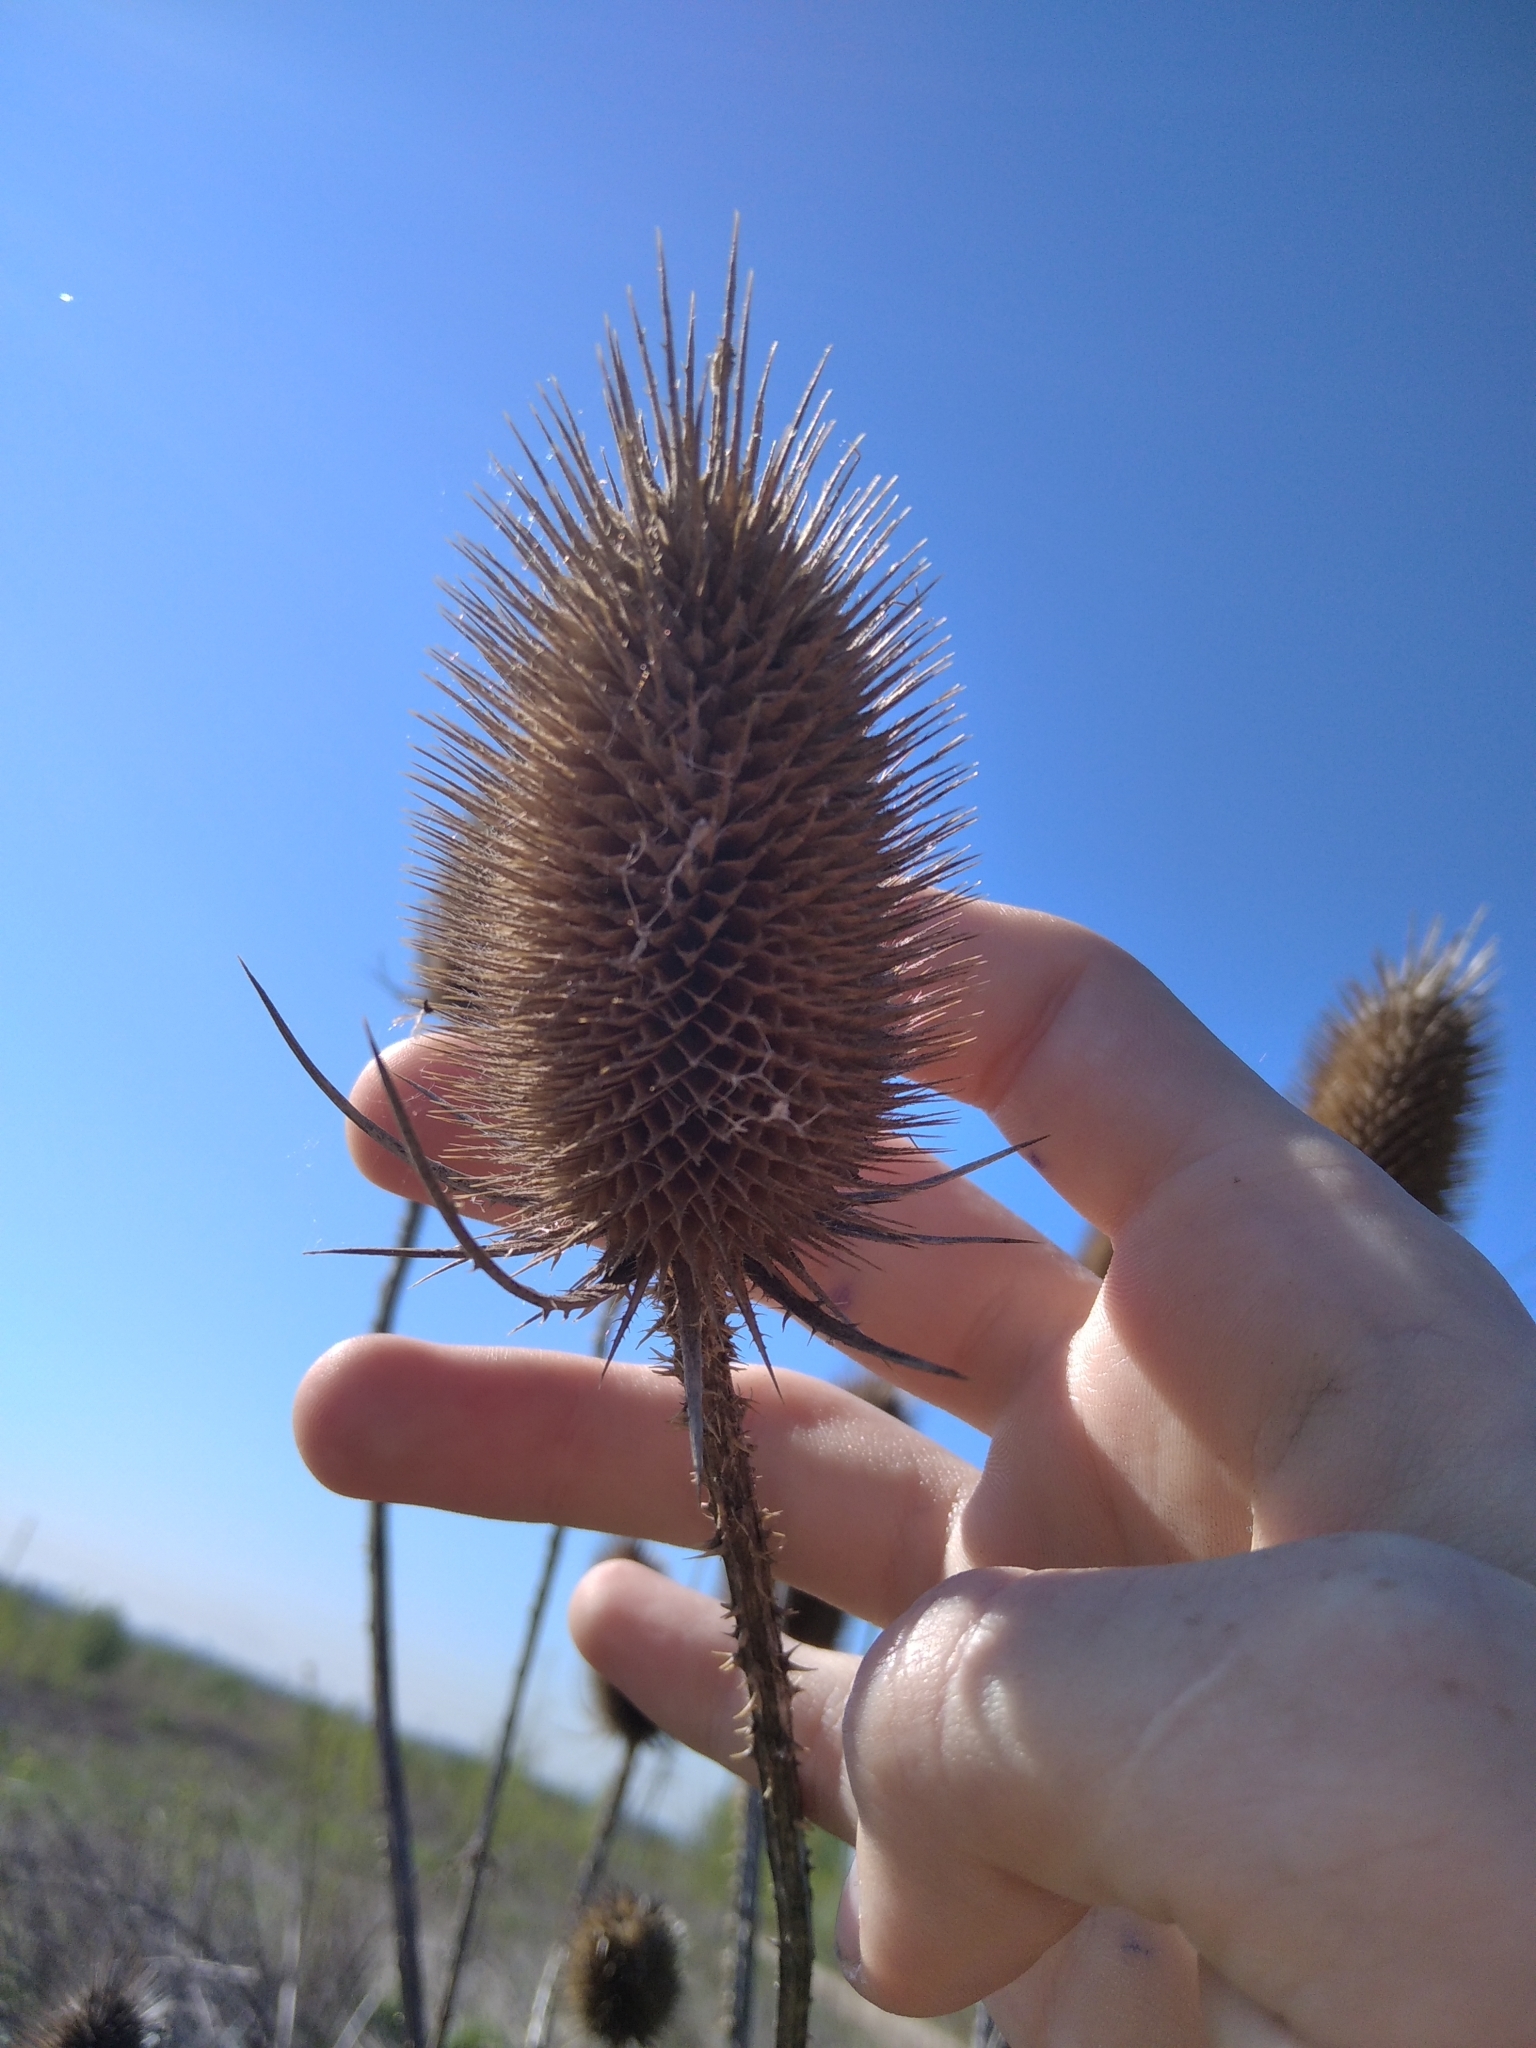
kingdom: Plantae
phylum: Tracheophyta
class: Magnoliopsida
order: Dipsacales
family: Caprifoliaceae
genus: Dipsacus
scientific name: Dipsacus fullonum
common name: Teasel
